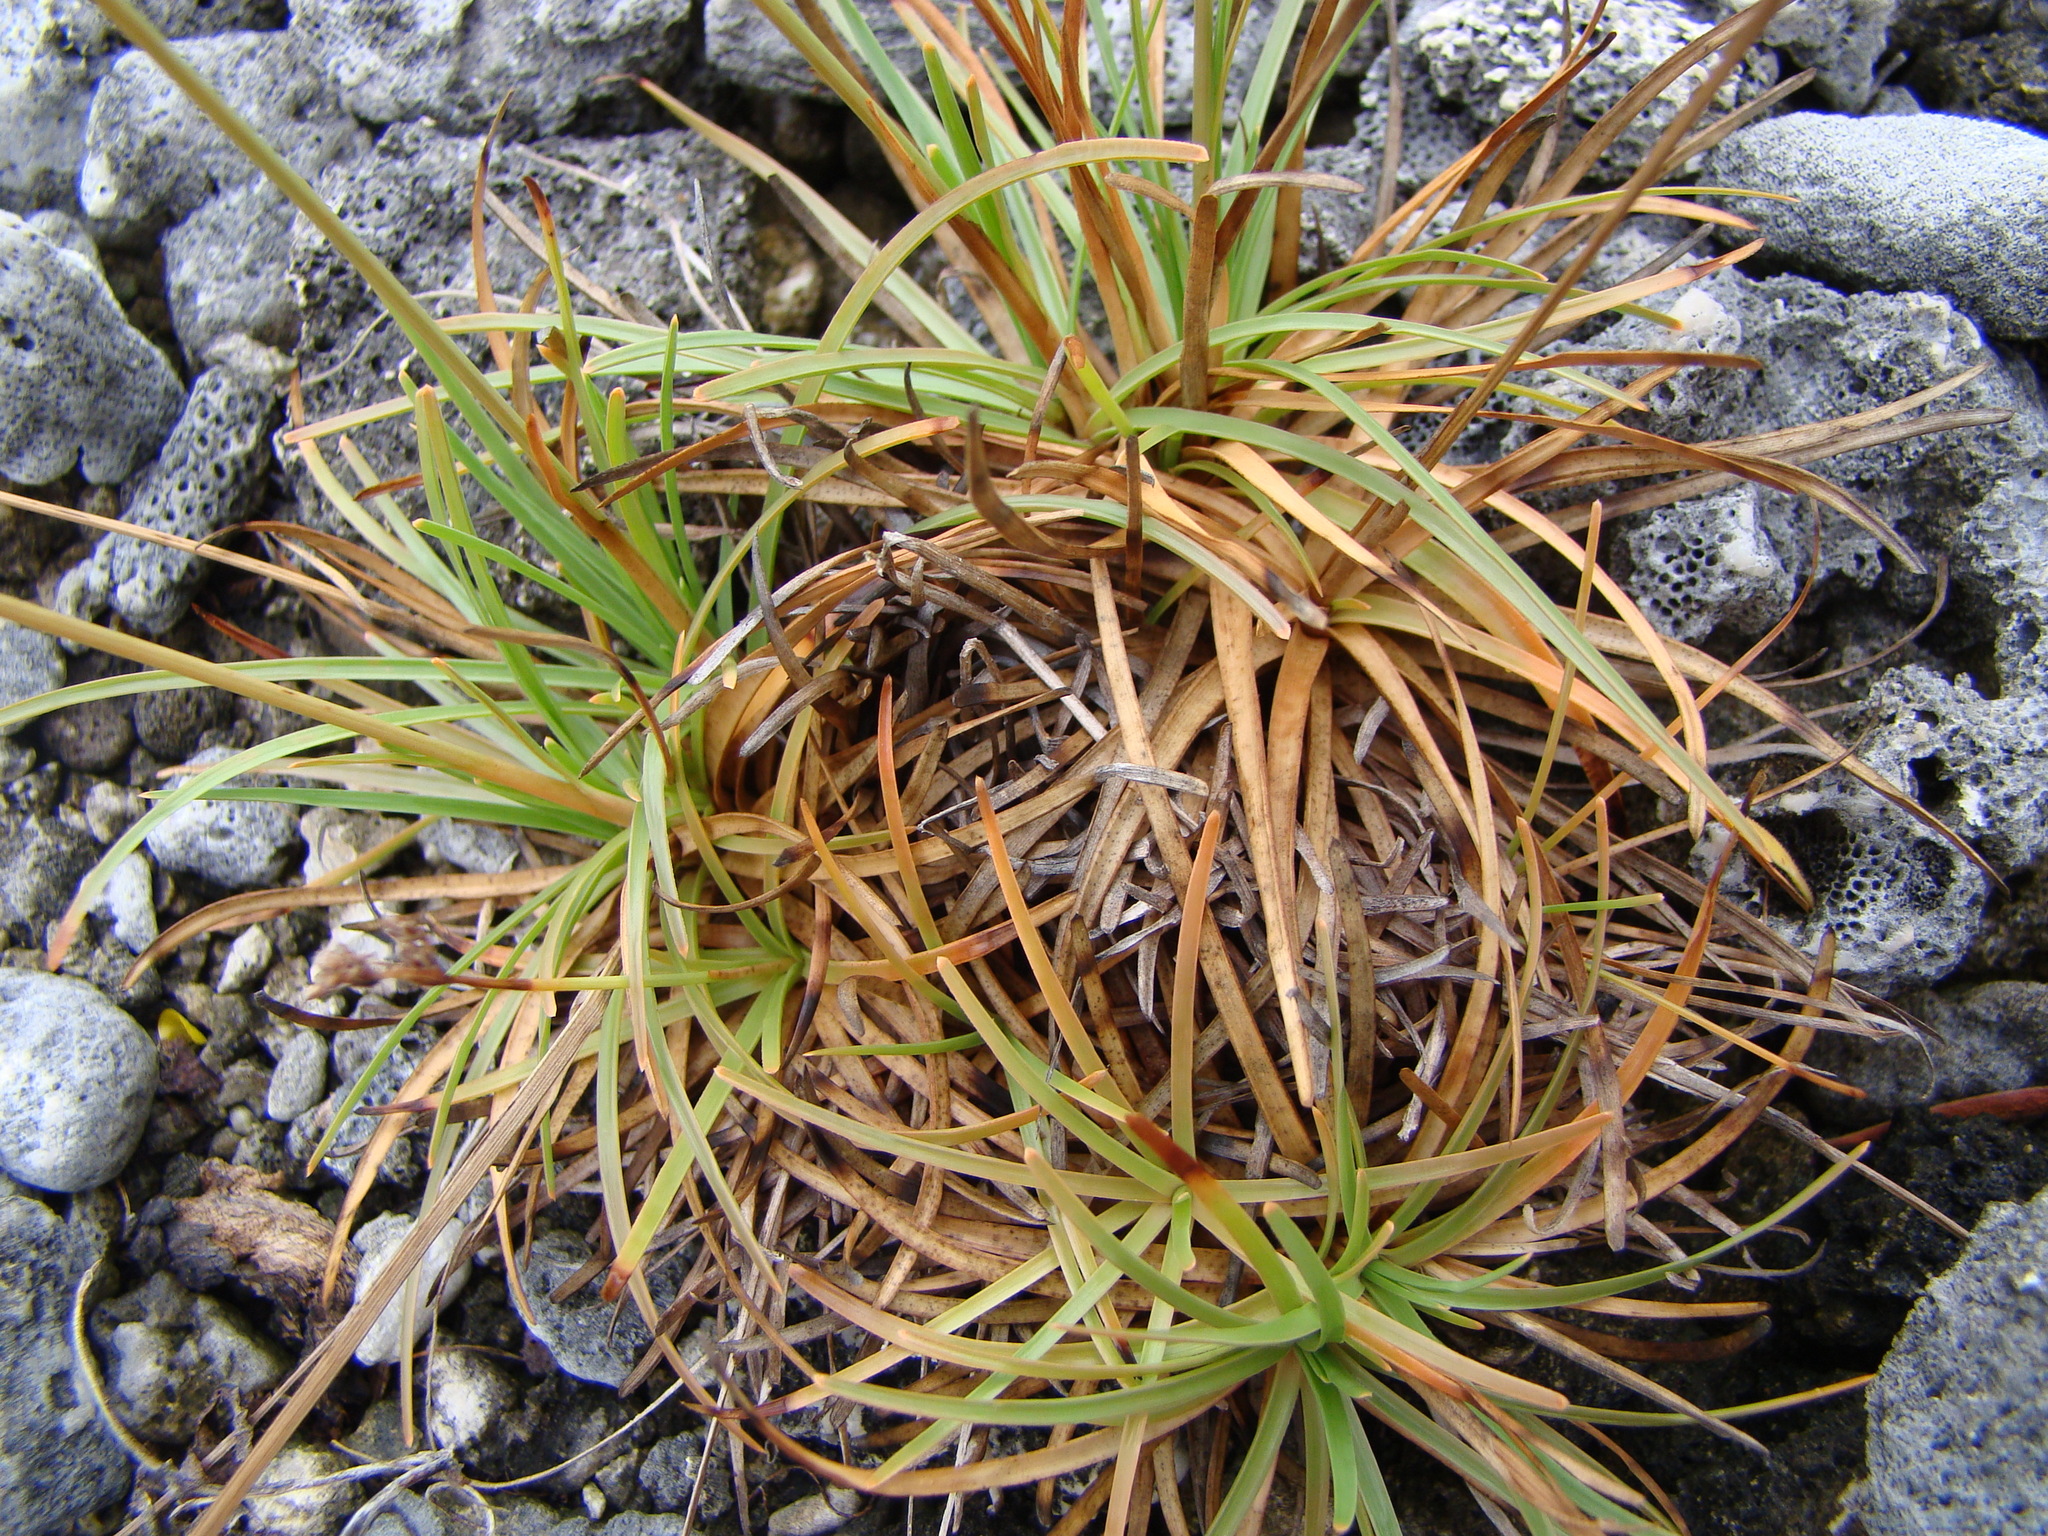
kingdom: Plantae
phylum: Tracheophyta
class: Liliopsida
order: Poales
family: Cyperaceae
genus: Fimbristylis
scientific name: Fimbristylis cymosa
